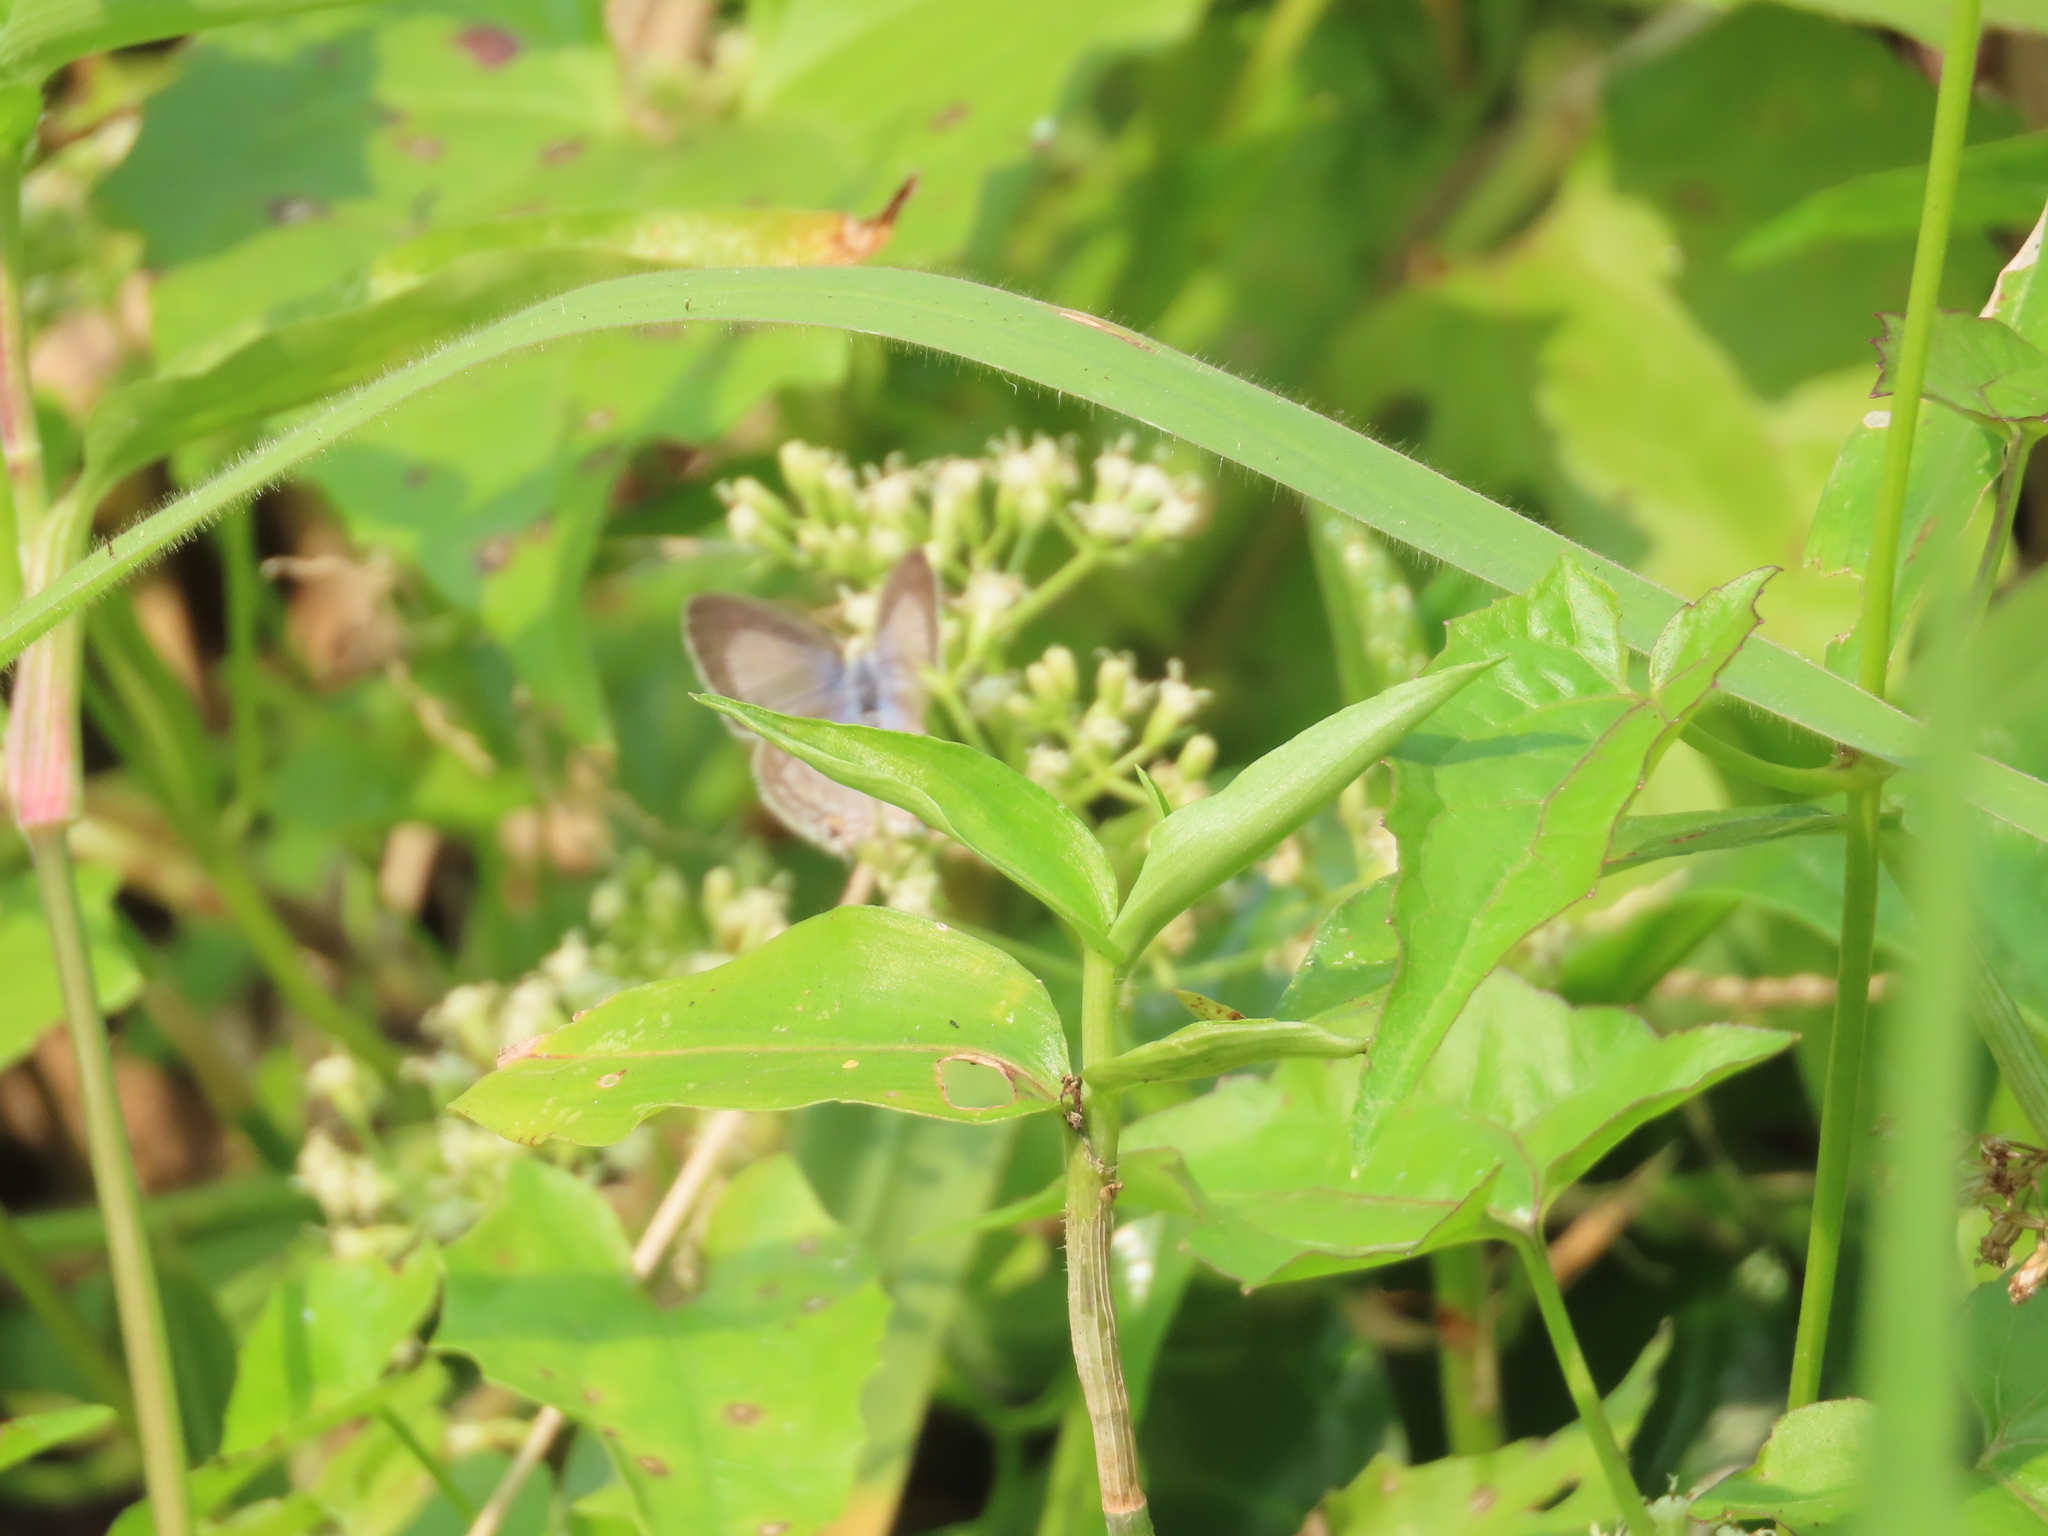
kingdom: Animalia
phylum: Arthropoda
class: Insecta
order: Lepidoptera
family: Lycaenidae
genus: Luthrodes
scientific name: Luthrodes pandava
